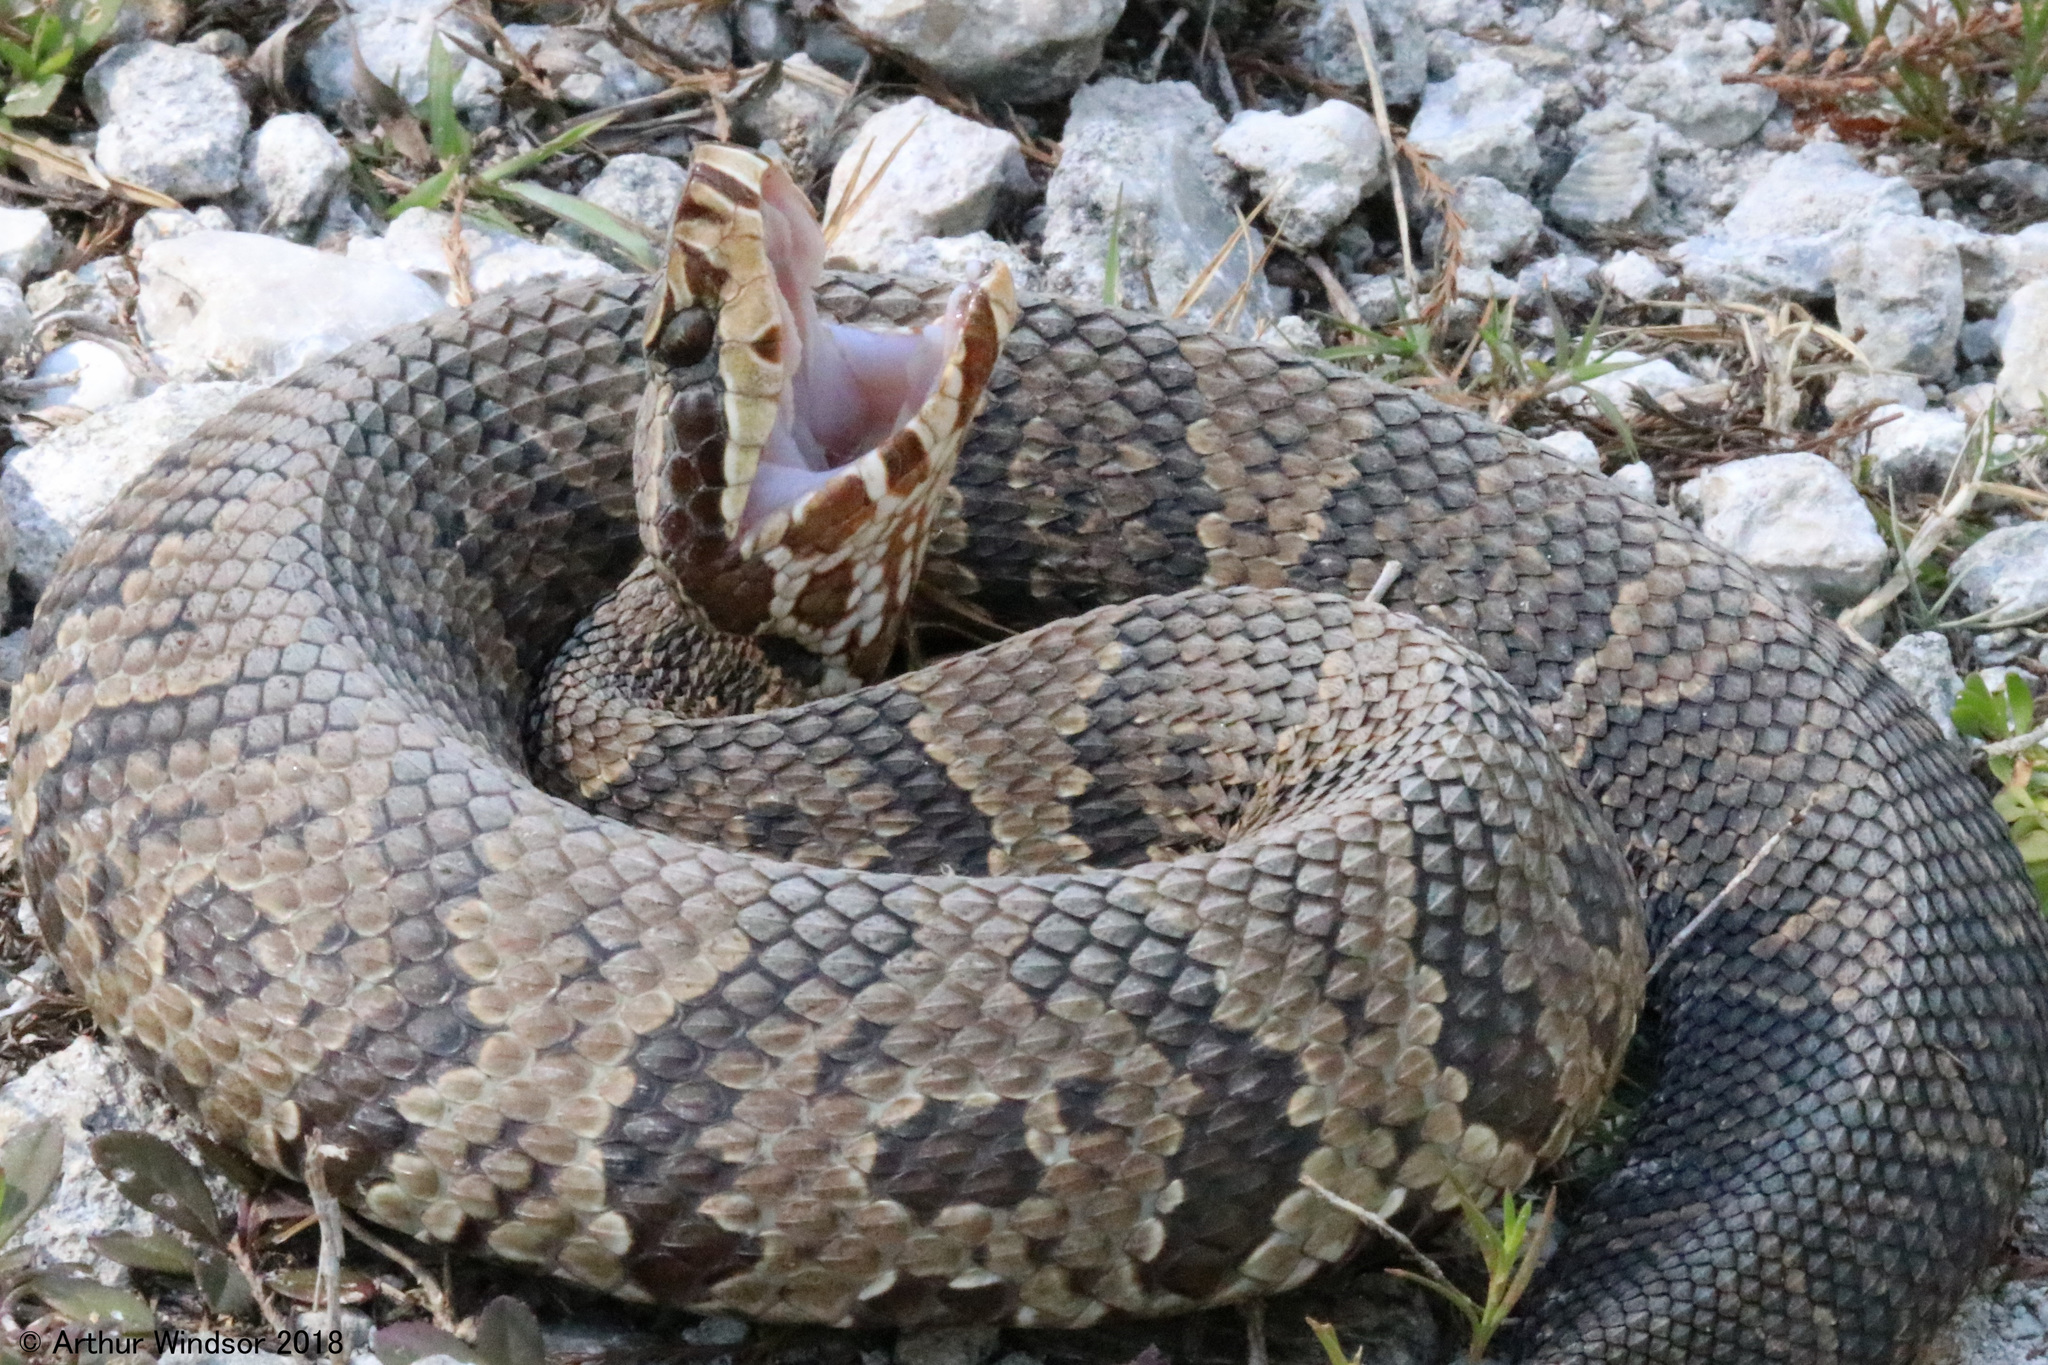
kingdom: Animalia
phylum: Chordata
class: Squamata
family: Viperidae
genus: Agkistrodon
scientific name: Agkistrodon conanti
